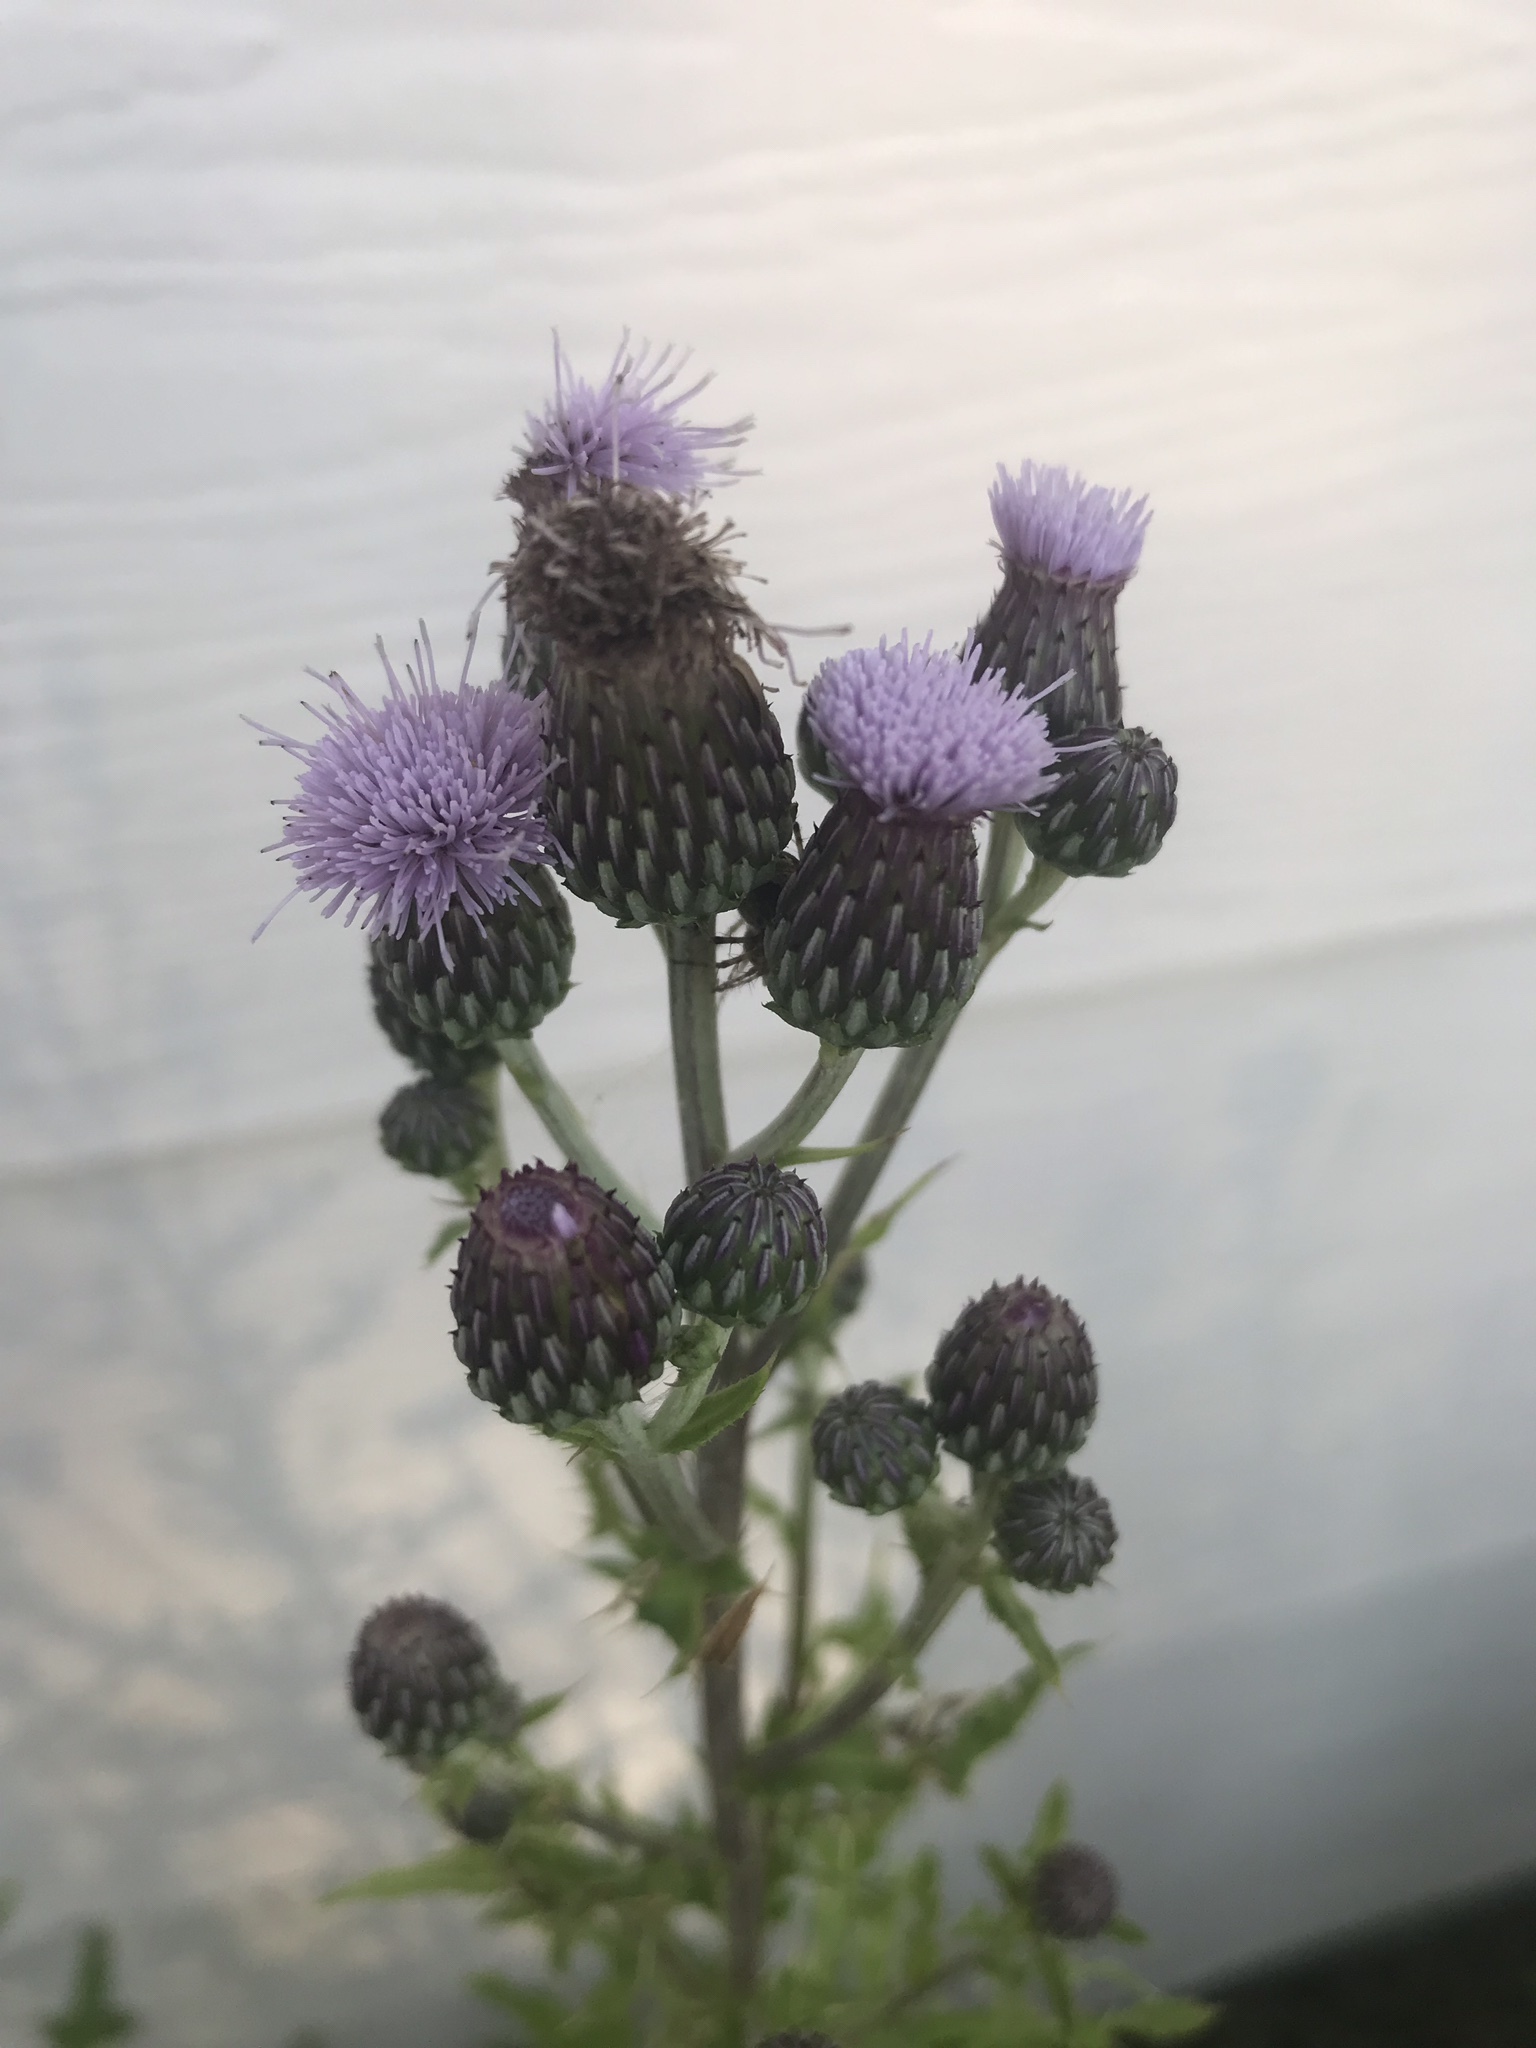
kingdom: Plantae
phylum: Tracheophyta
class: Magnoliopsida
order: Asterales
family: Asteraceae
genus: Cirsium
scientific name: Cirsium arvense
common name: Creeping thistle
